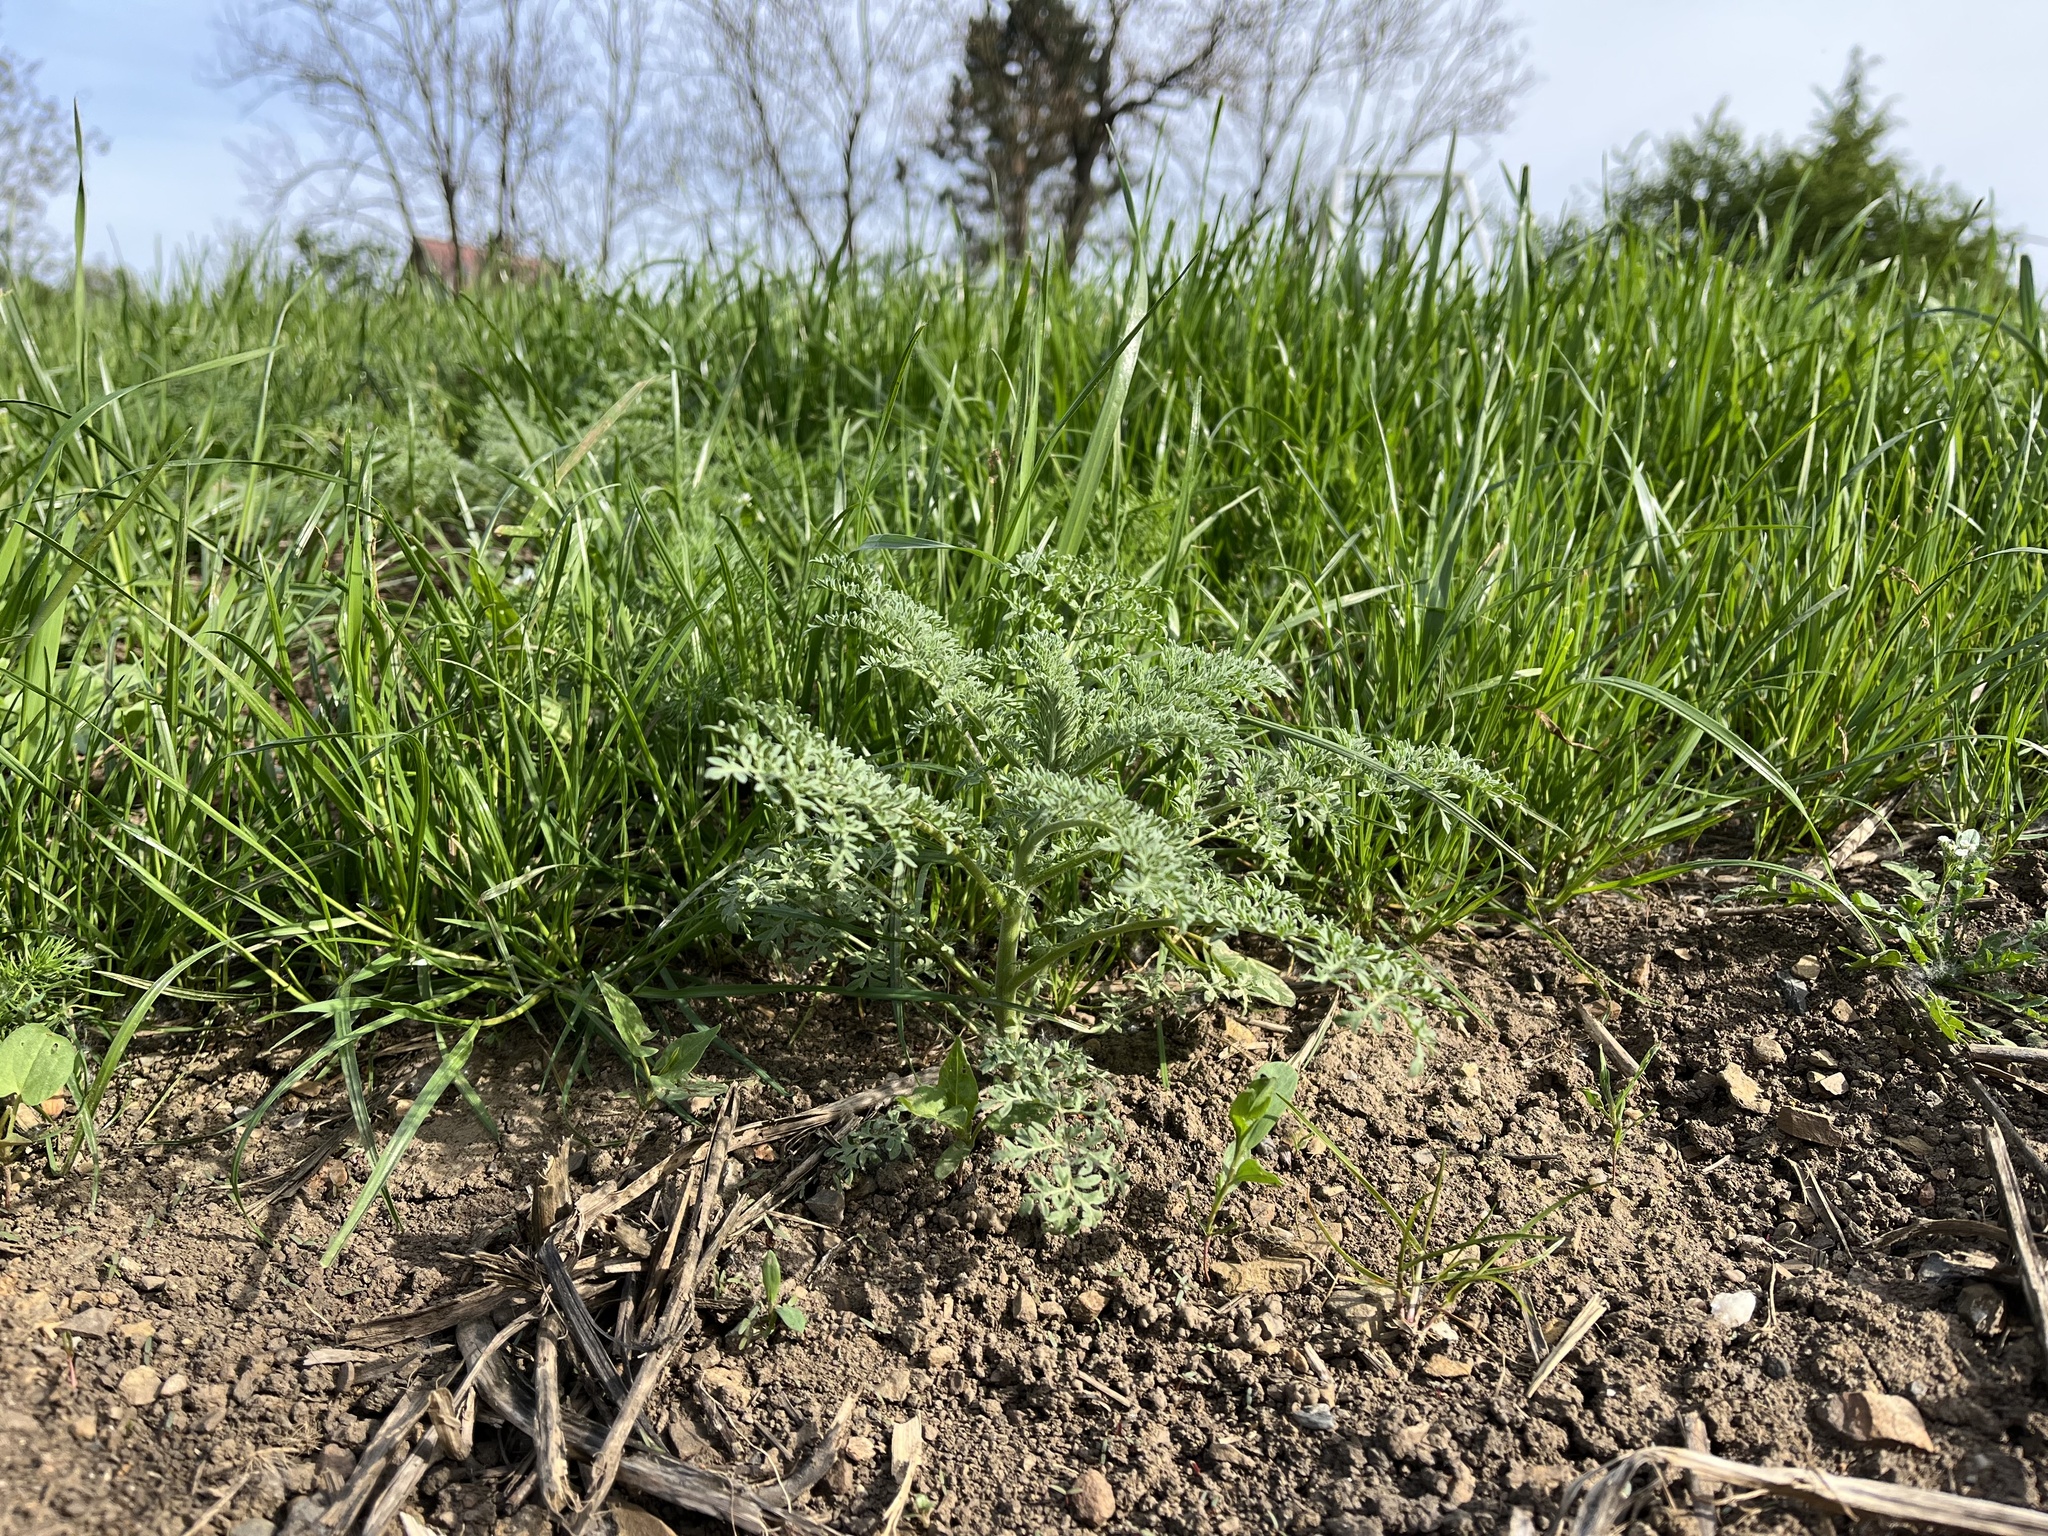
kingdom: Plantae
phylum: Tracheophyta
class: Magnoliopsida
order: Brassicales
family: Brassicaceae
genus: Descurainia
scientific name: Descurainia sophia
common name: Flixweed
